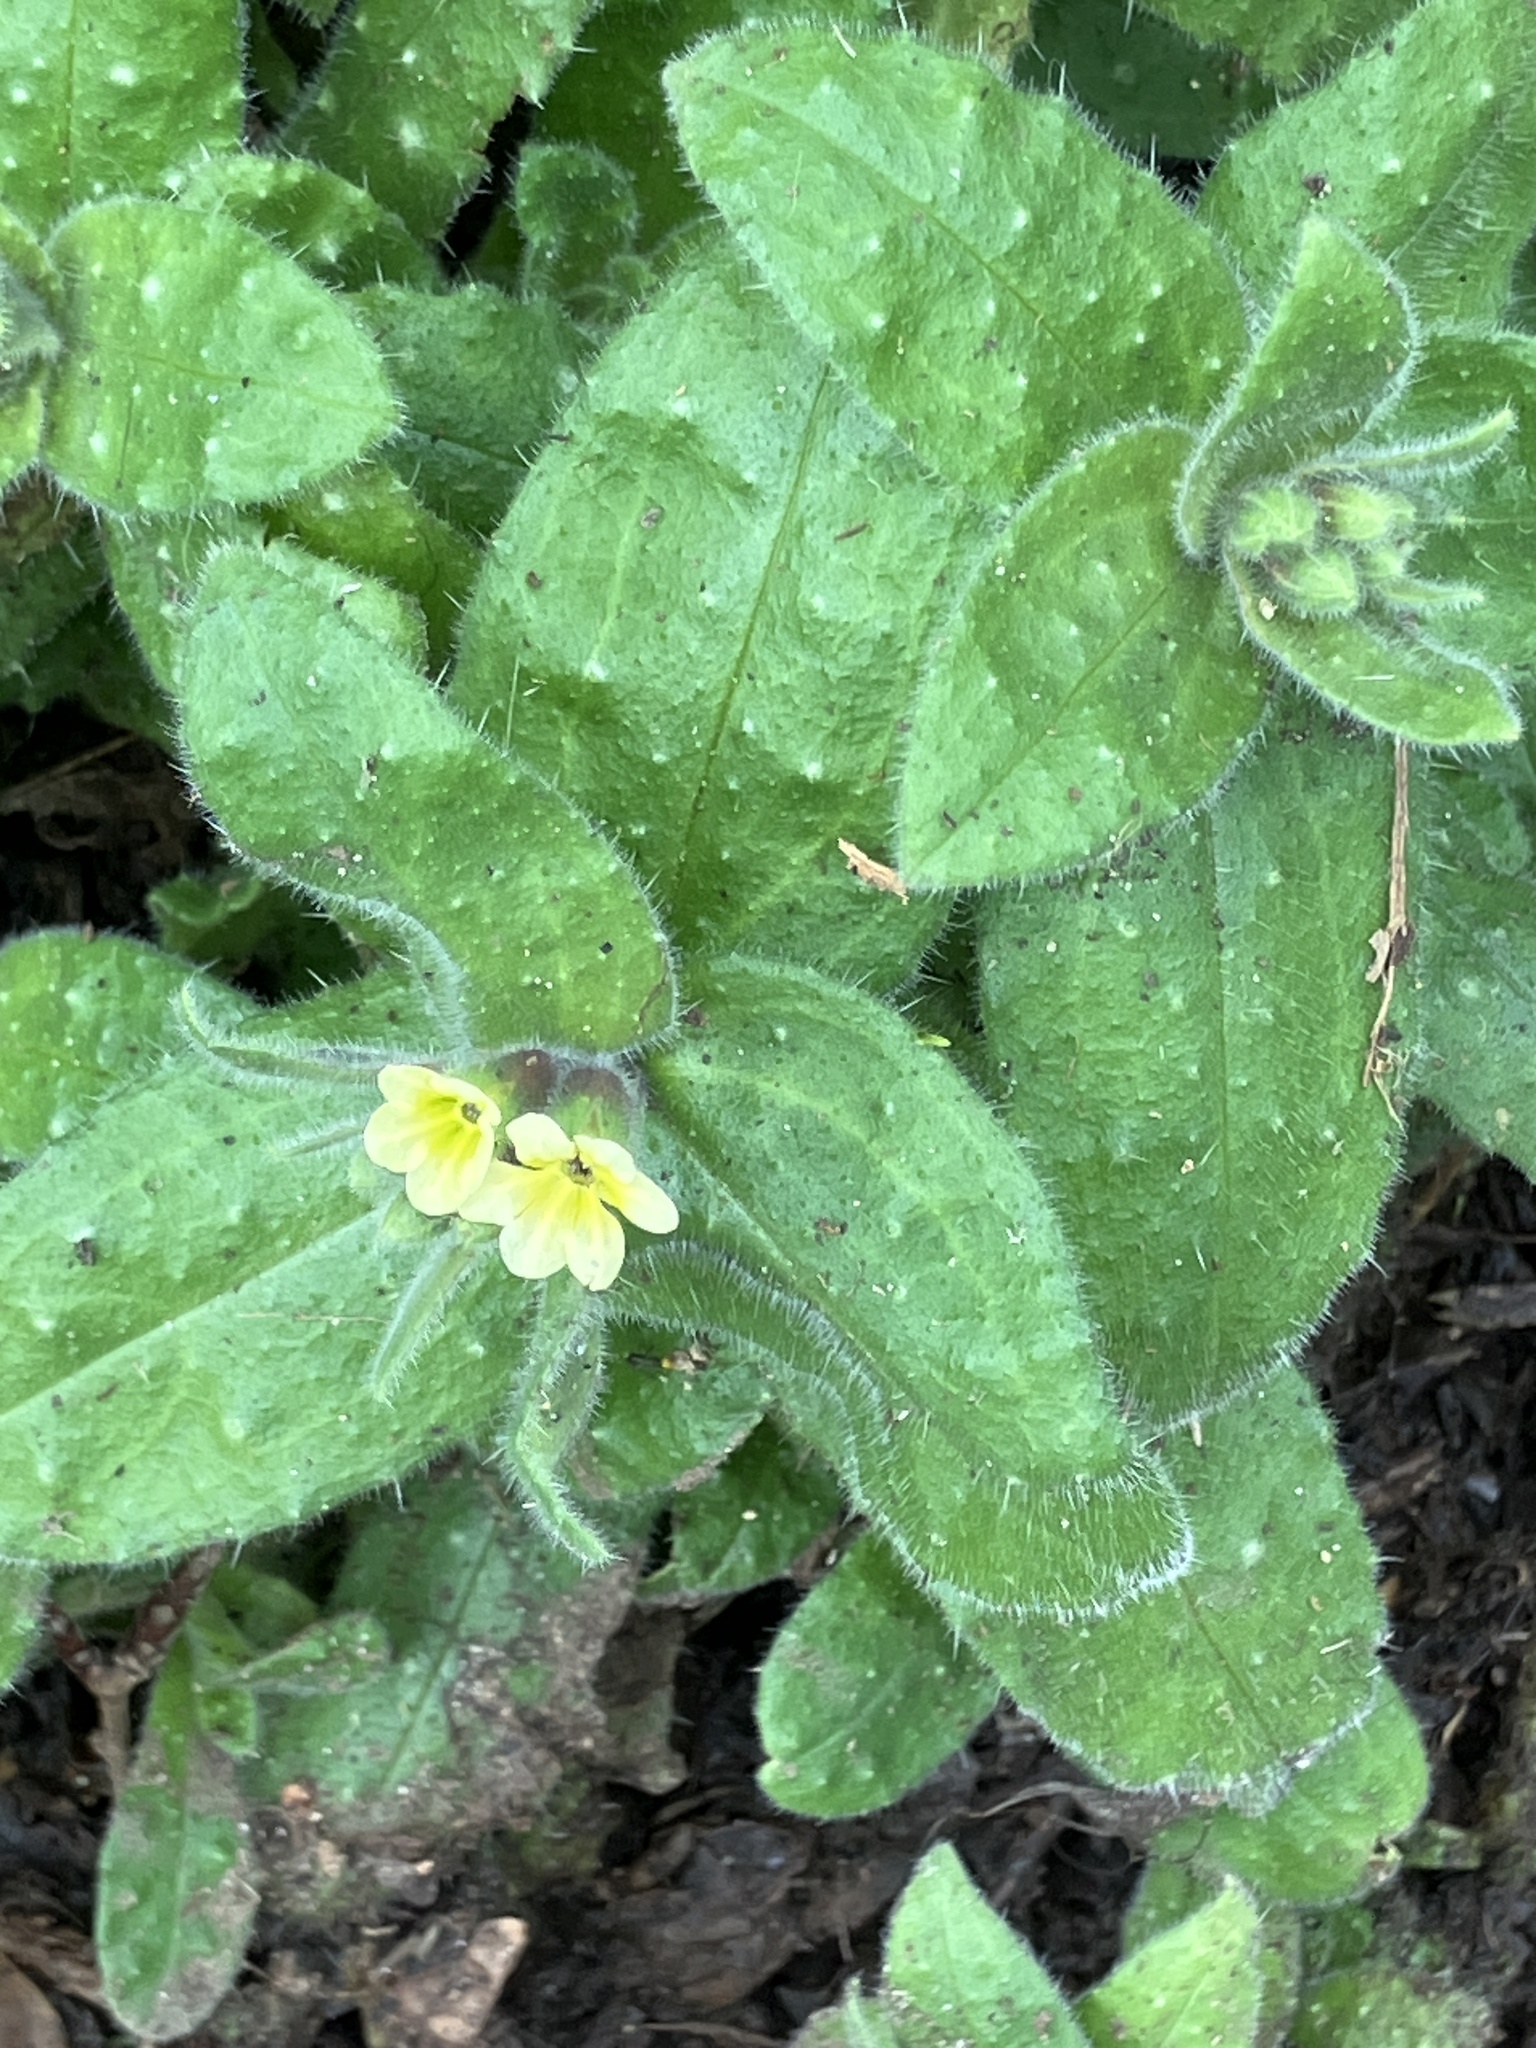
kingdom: Plantae
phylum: Tracheophyta
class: Magnoliopsida
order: Boraginales
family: Boraginaceae
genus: Nonea
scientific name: Nonea lutea
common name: Yellow nonea
